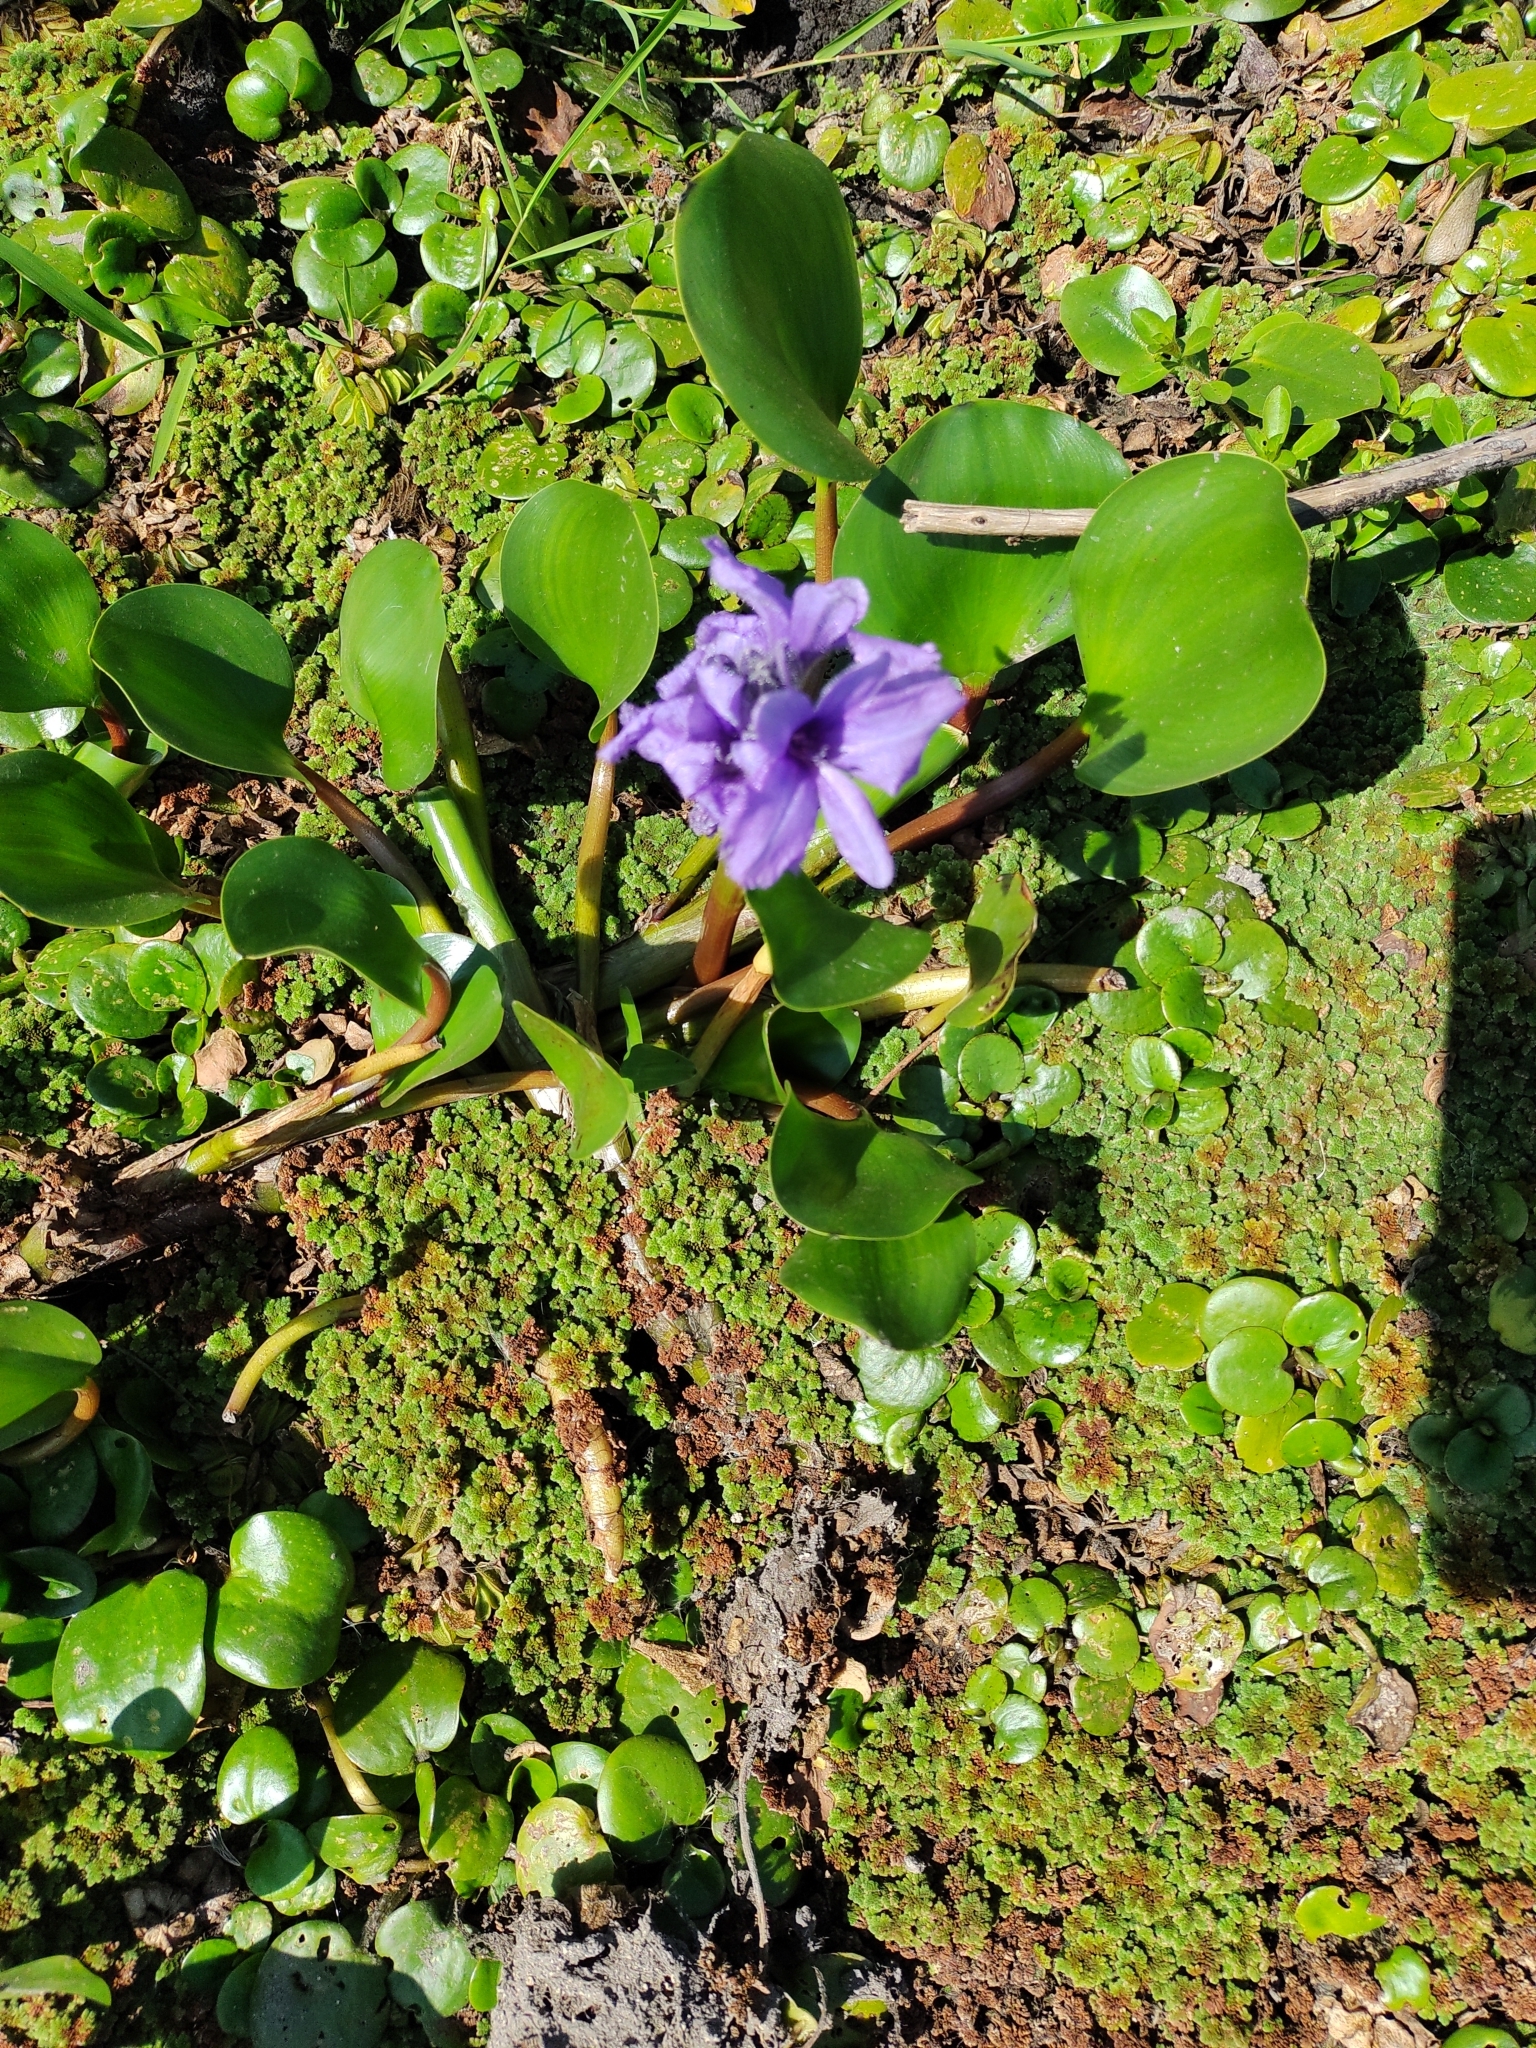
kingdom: Plantae
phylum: Tracheophyta
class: Liliopsida
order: Commelinales
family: Pontederiaceae
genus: Pontederia
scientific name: Pontederia azurea
